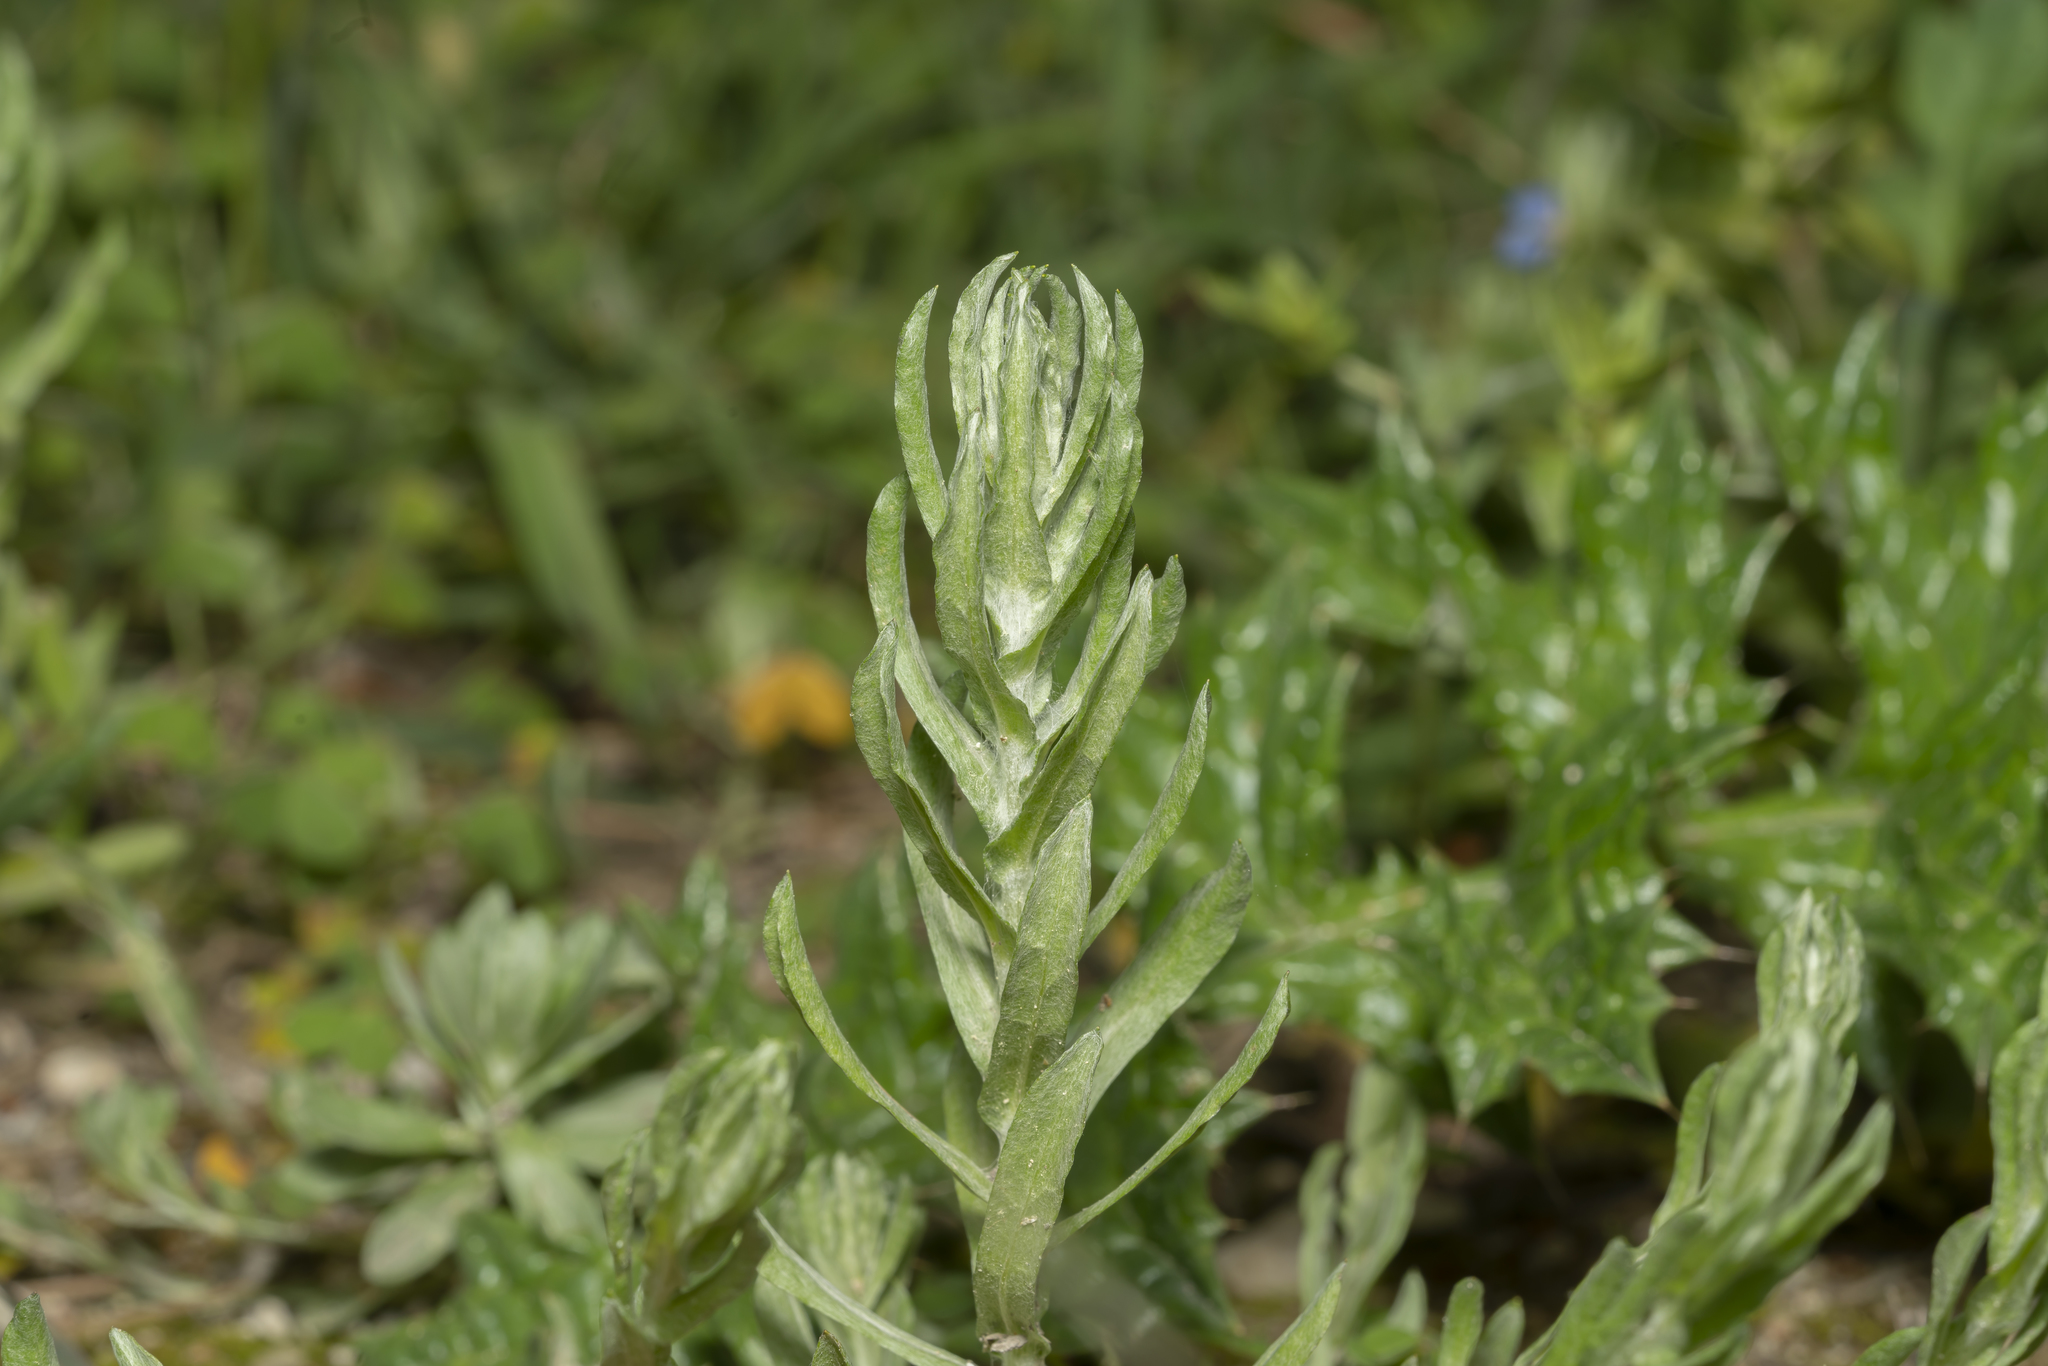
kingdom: Plantae
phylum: Tracheophyta
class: Magnoliopsida
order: Asterales
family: Asteraceae
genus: Filago
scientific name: Filago
